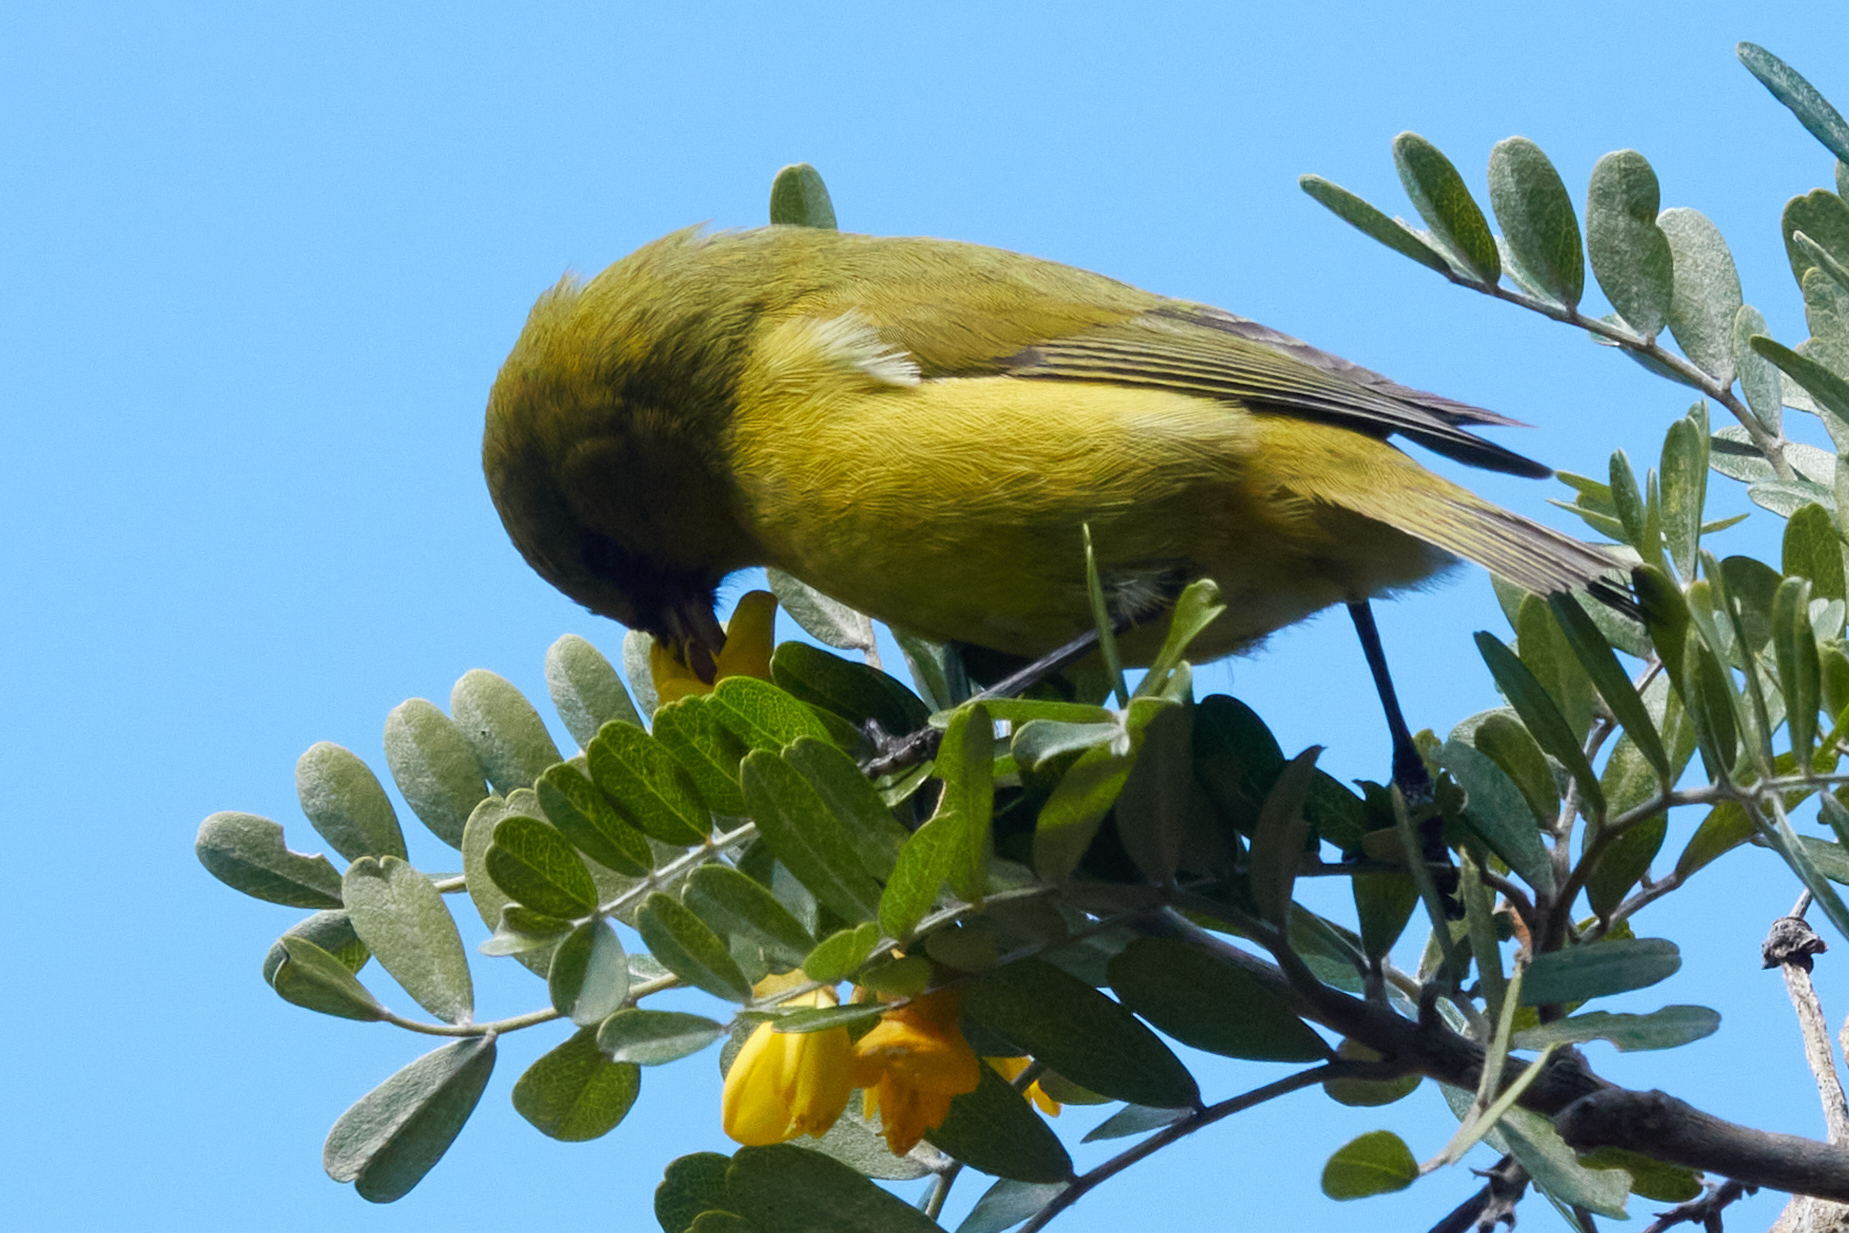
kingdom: Animalia
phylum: Chordata
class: Aves
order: Passeriformes
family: Fringillidae
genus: Chlorodrepanis
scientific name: Chlorodrepanis virens
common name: Hawaii amakihi
